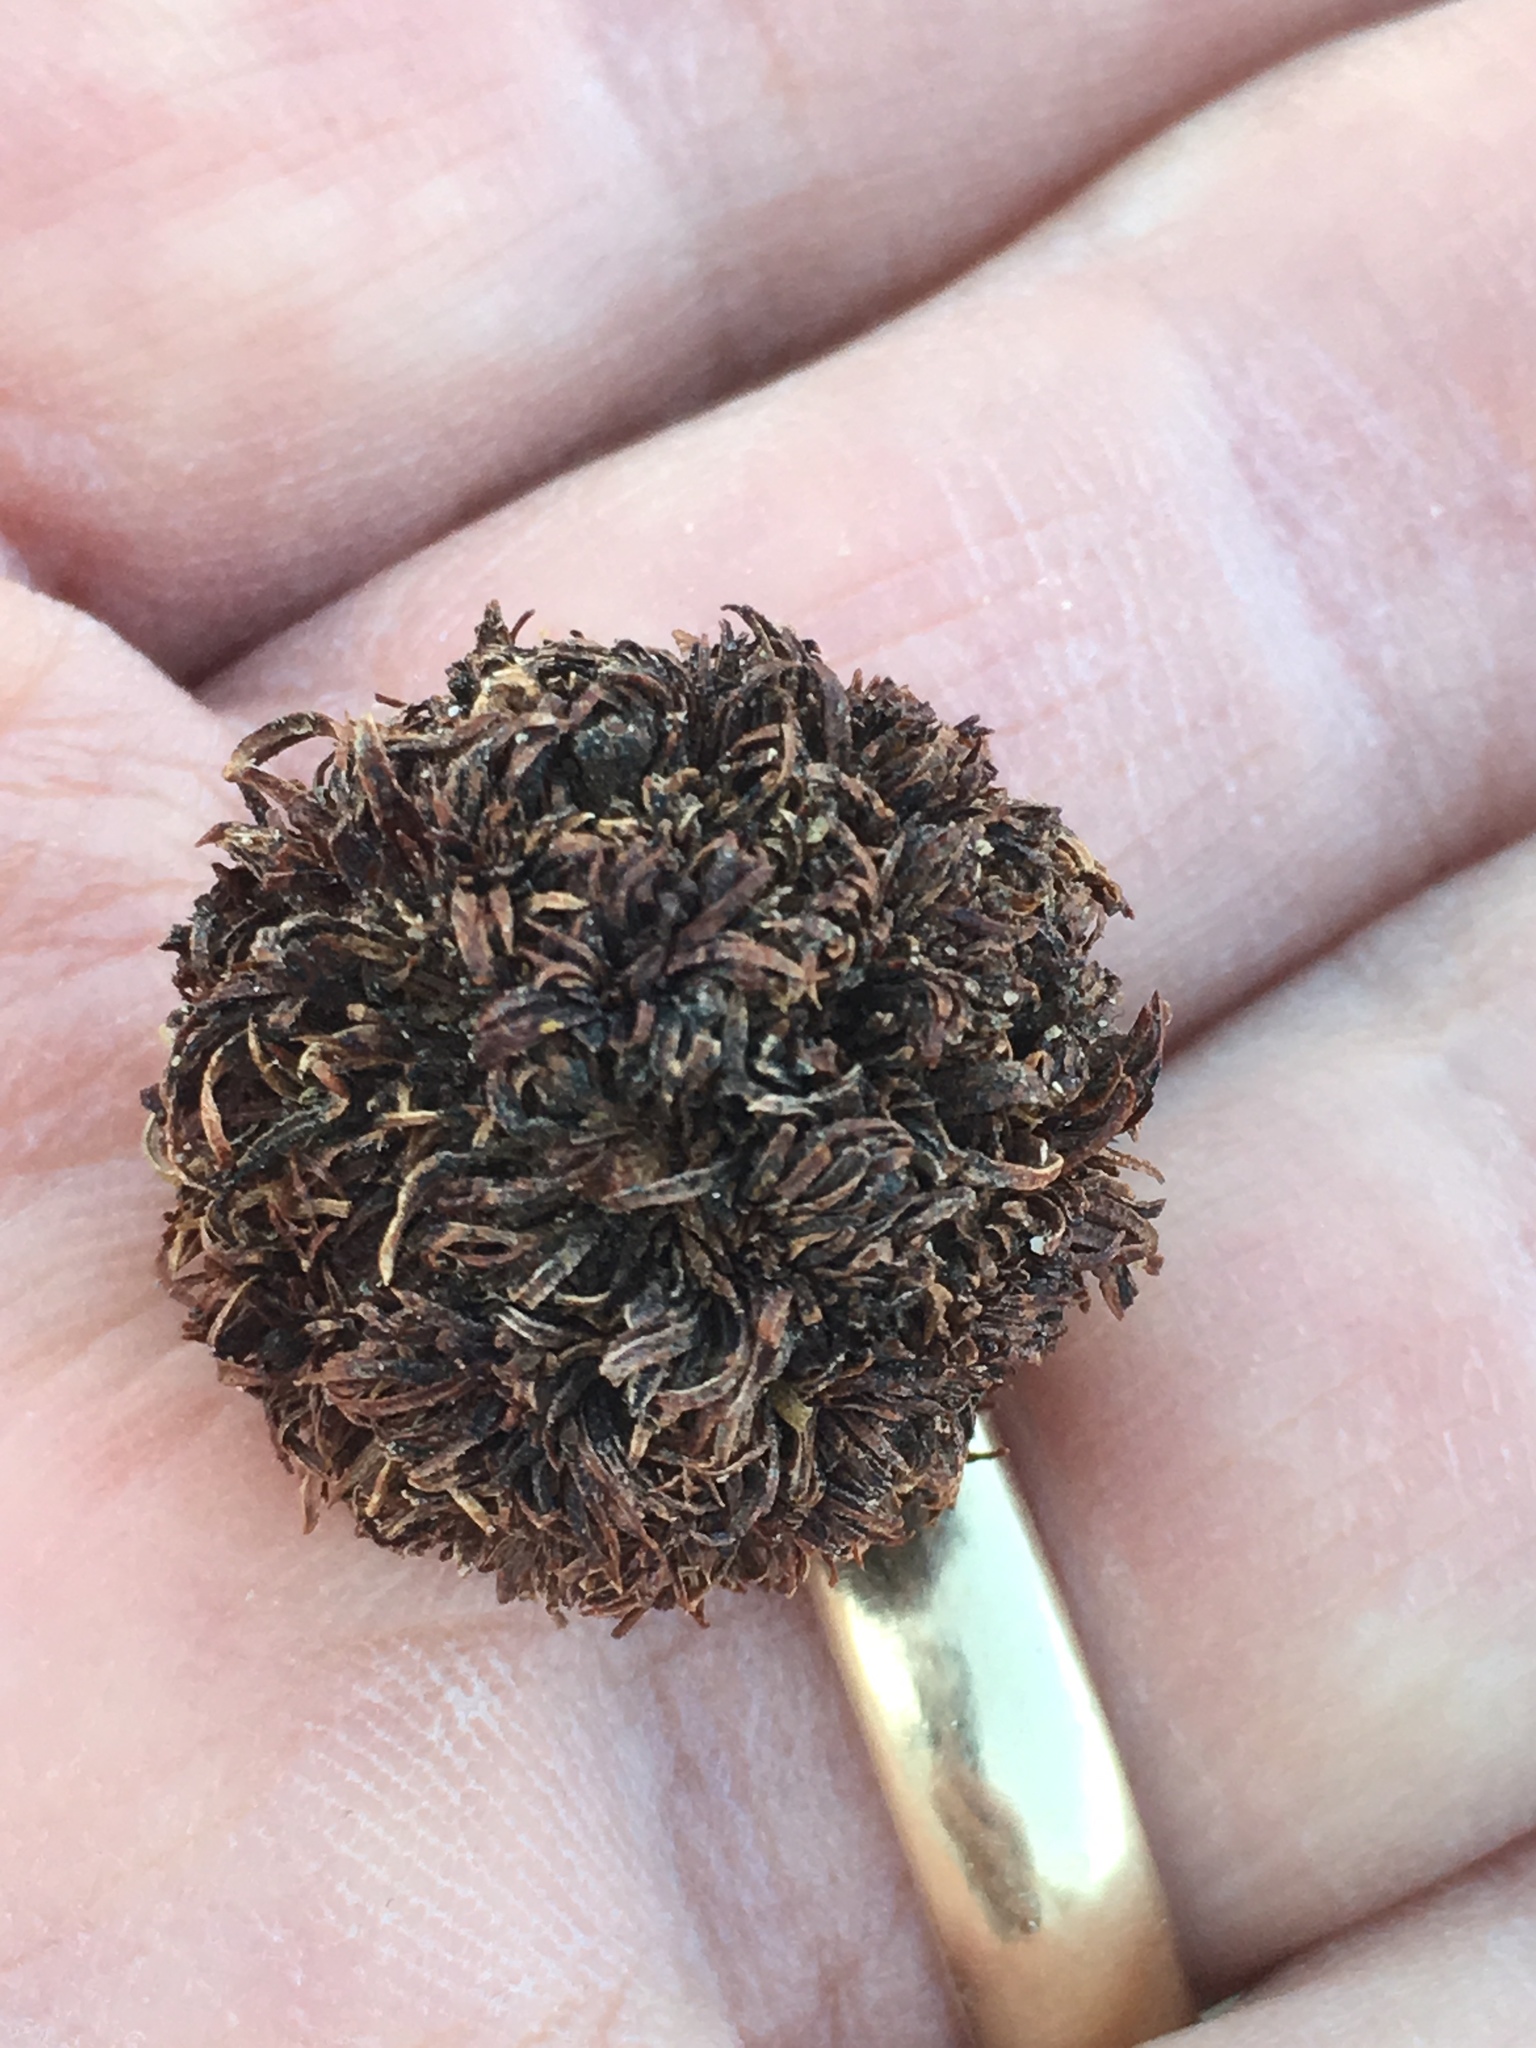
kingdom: Animalia
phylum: Arthropoda
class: Insecta
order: Diptera
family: Cecidomyiidae
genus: Asphondylia
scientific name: Asphondylia auripila
